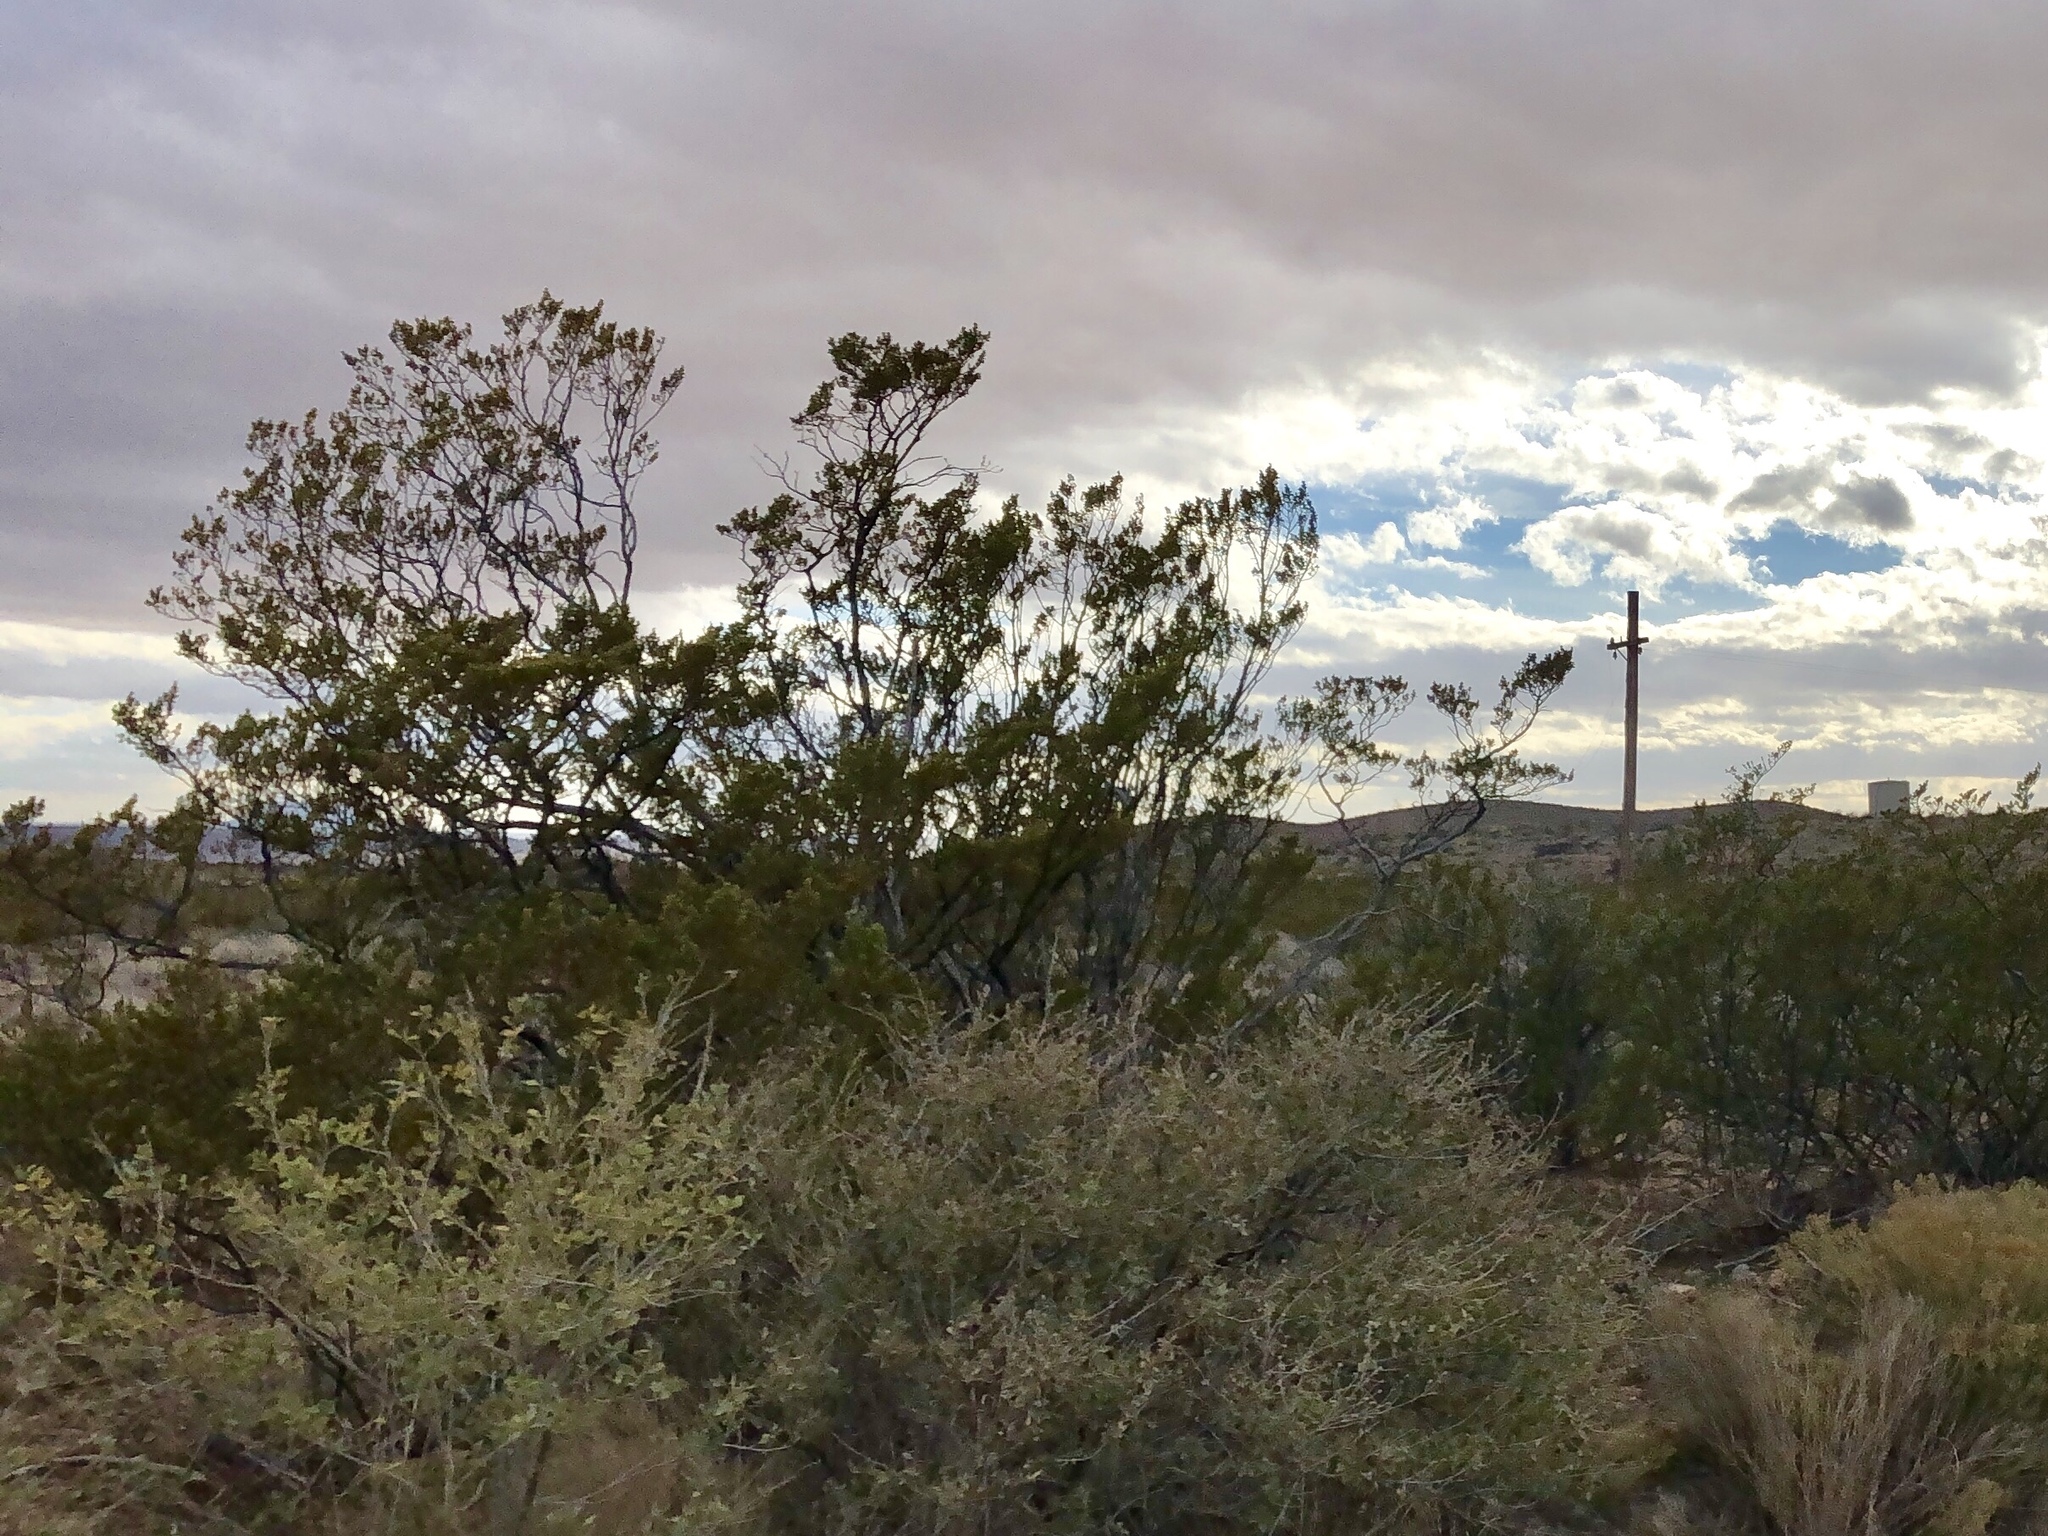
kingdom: Plantae
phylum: Tracheophyta
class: Magnoliopsida
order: Zygophyllales
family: Zygophyllaceae
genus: Larrea
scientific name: Larrea tridentata
